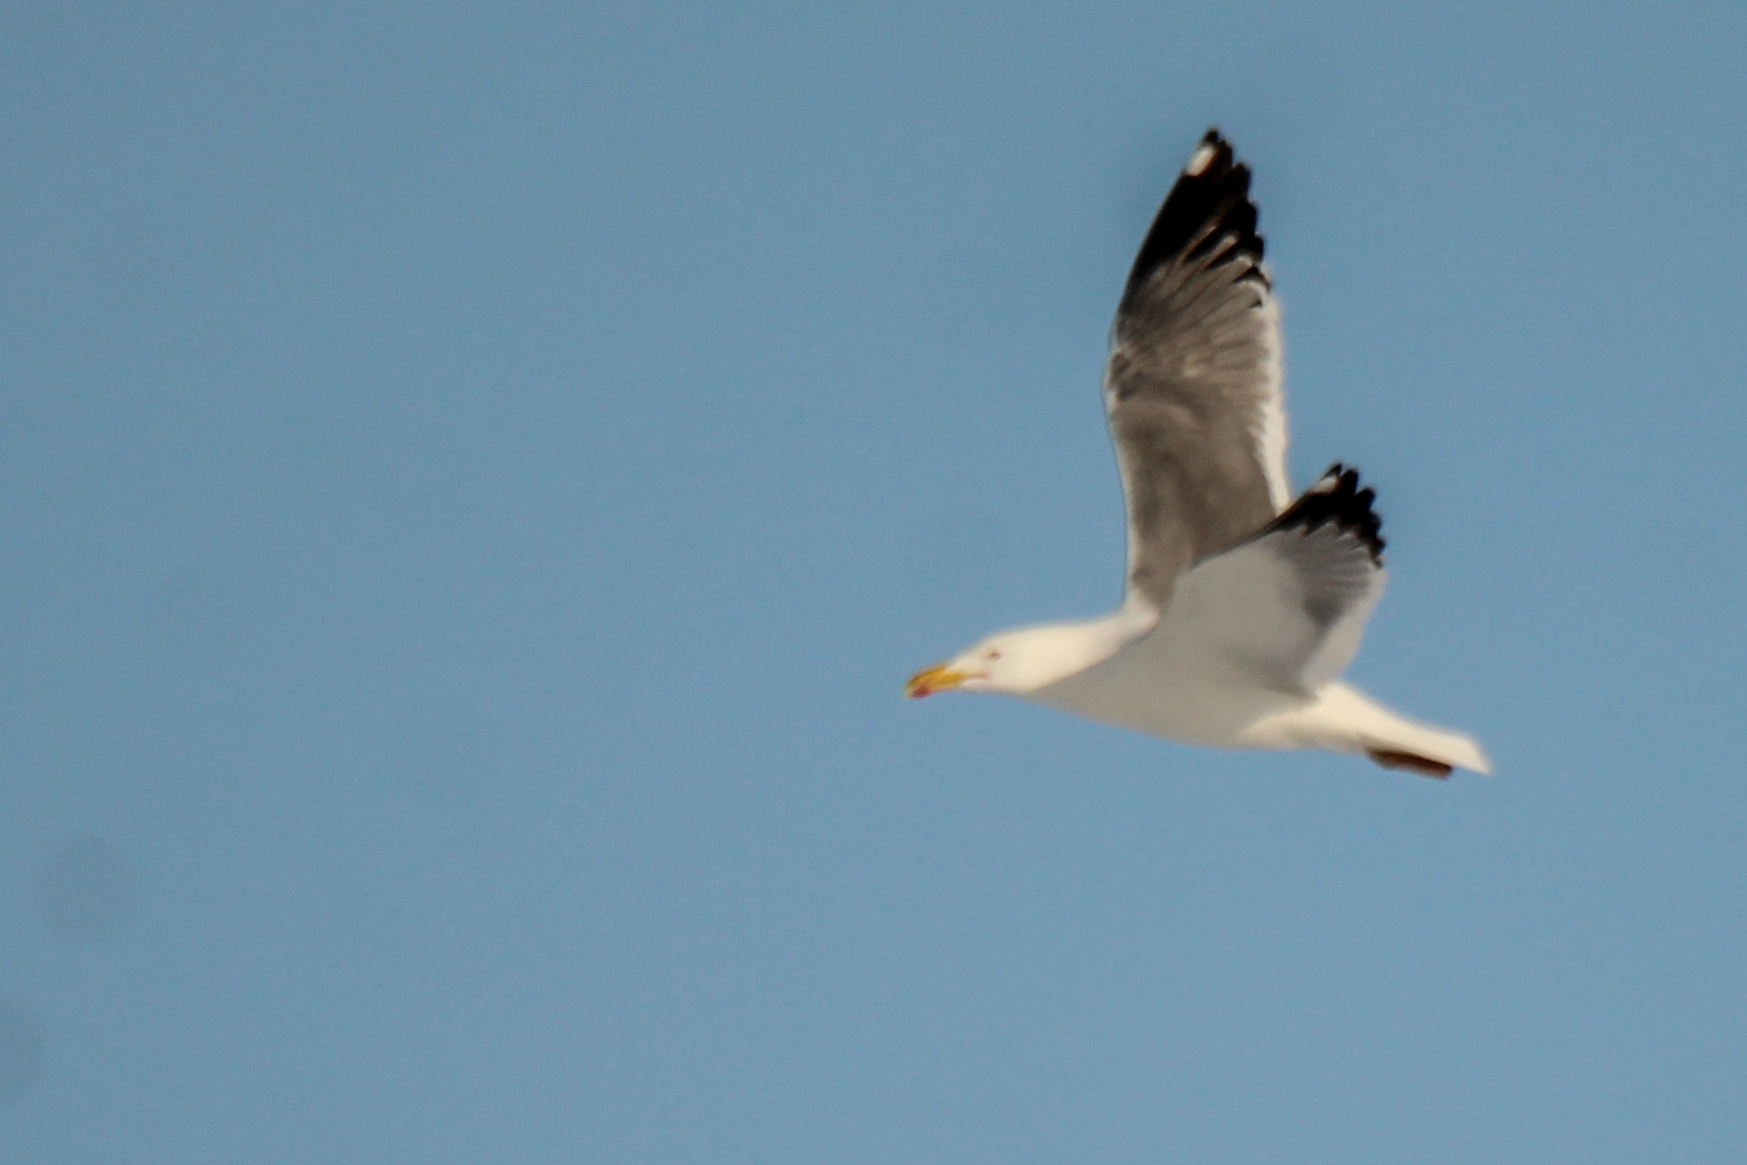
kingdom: Animalia
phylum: Chordata
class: Aves
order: Charadriiformes
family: Laridae
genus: Larus
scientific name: Larus fuscus
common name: Lesser black-backed gull
